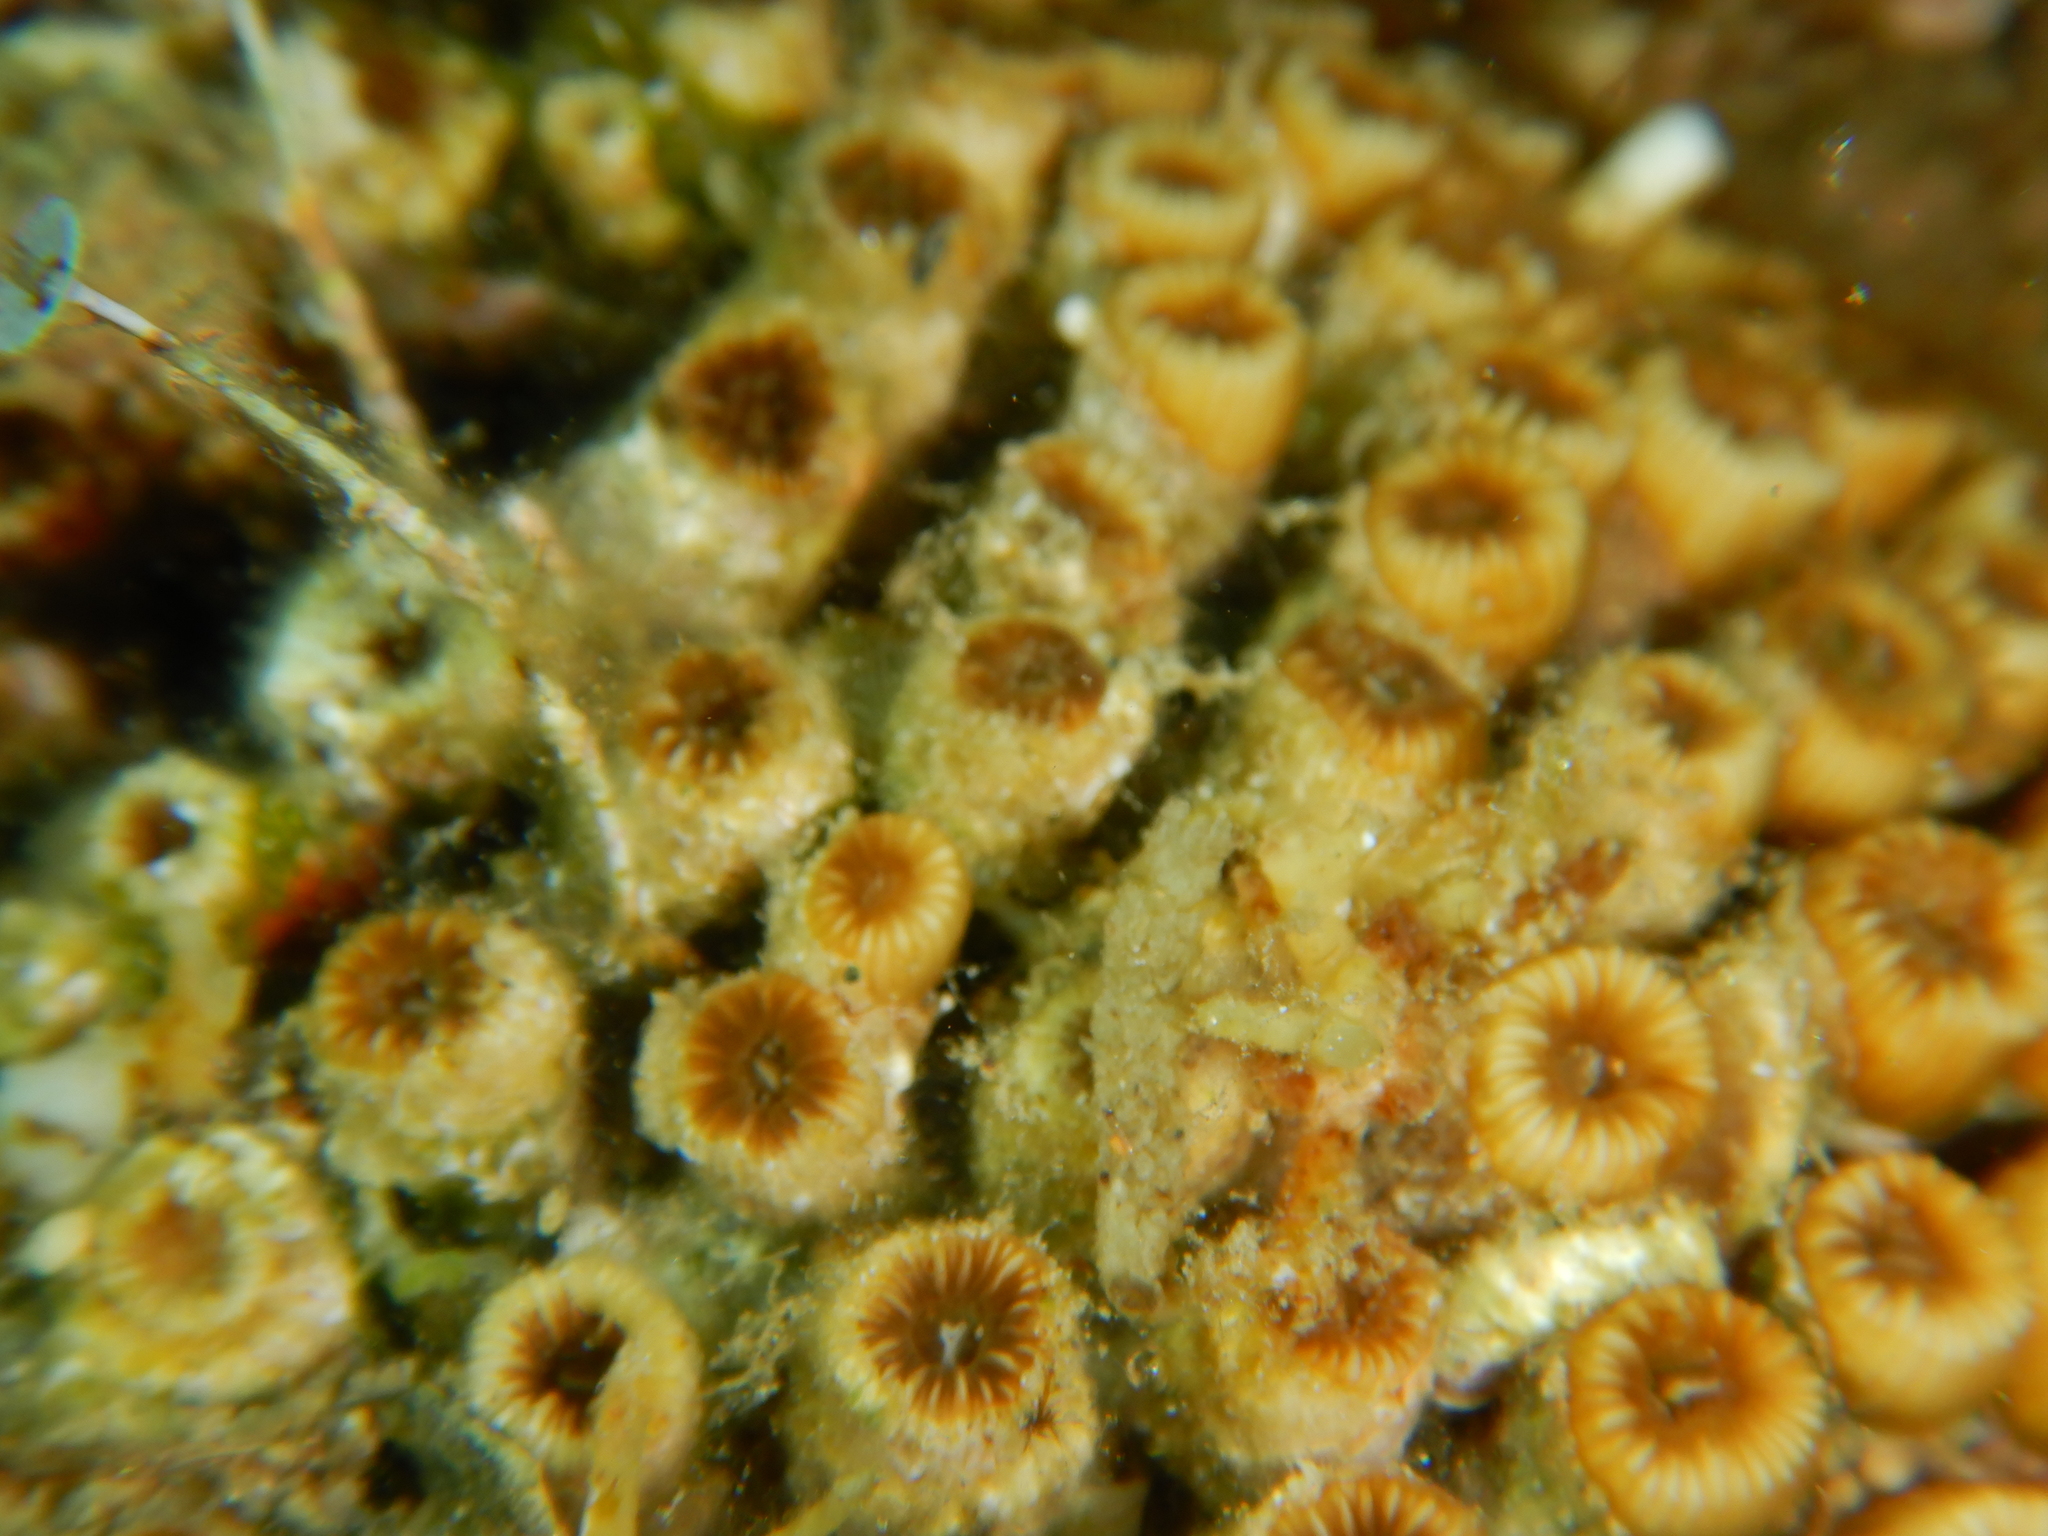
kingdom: Animalia
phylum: Cnidaria
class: Anthozoa
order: Scleractinia
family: Cladocoridae
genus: Cladocora
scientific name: Cladocora caespitosa
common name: Cladocora
